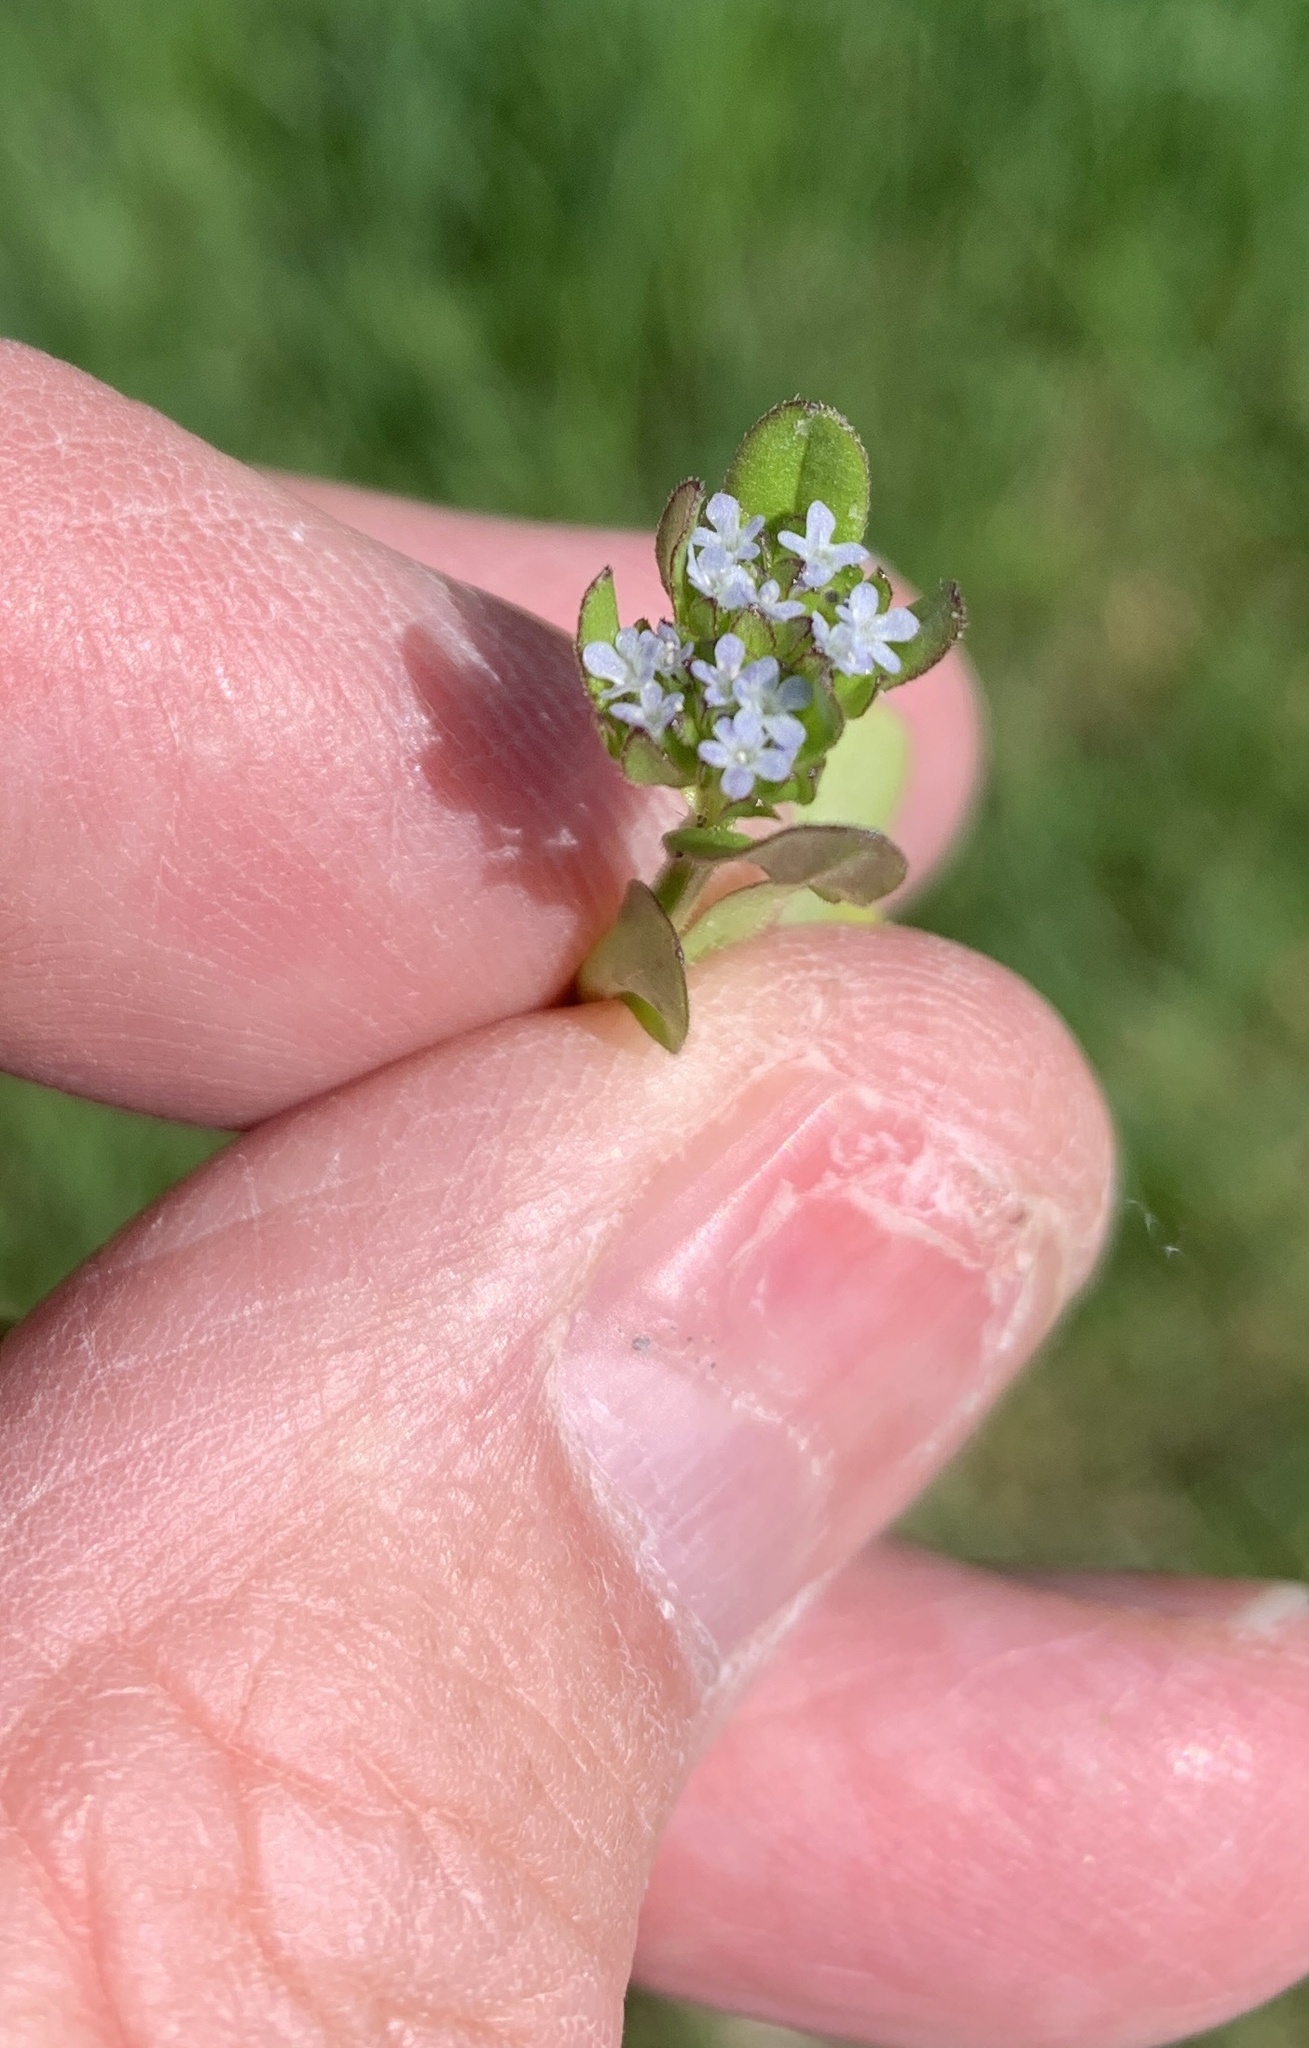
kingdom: Plantae
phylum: Tracheophyta
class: Magnoliopsida
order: Dipsacales
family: Caprifoliaceae
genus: Valerianella
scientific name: Valerianella locusta
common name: Common cornsalad
